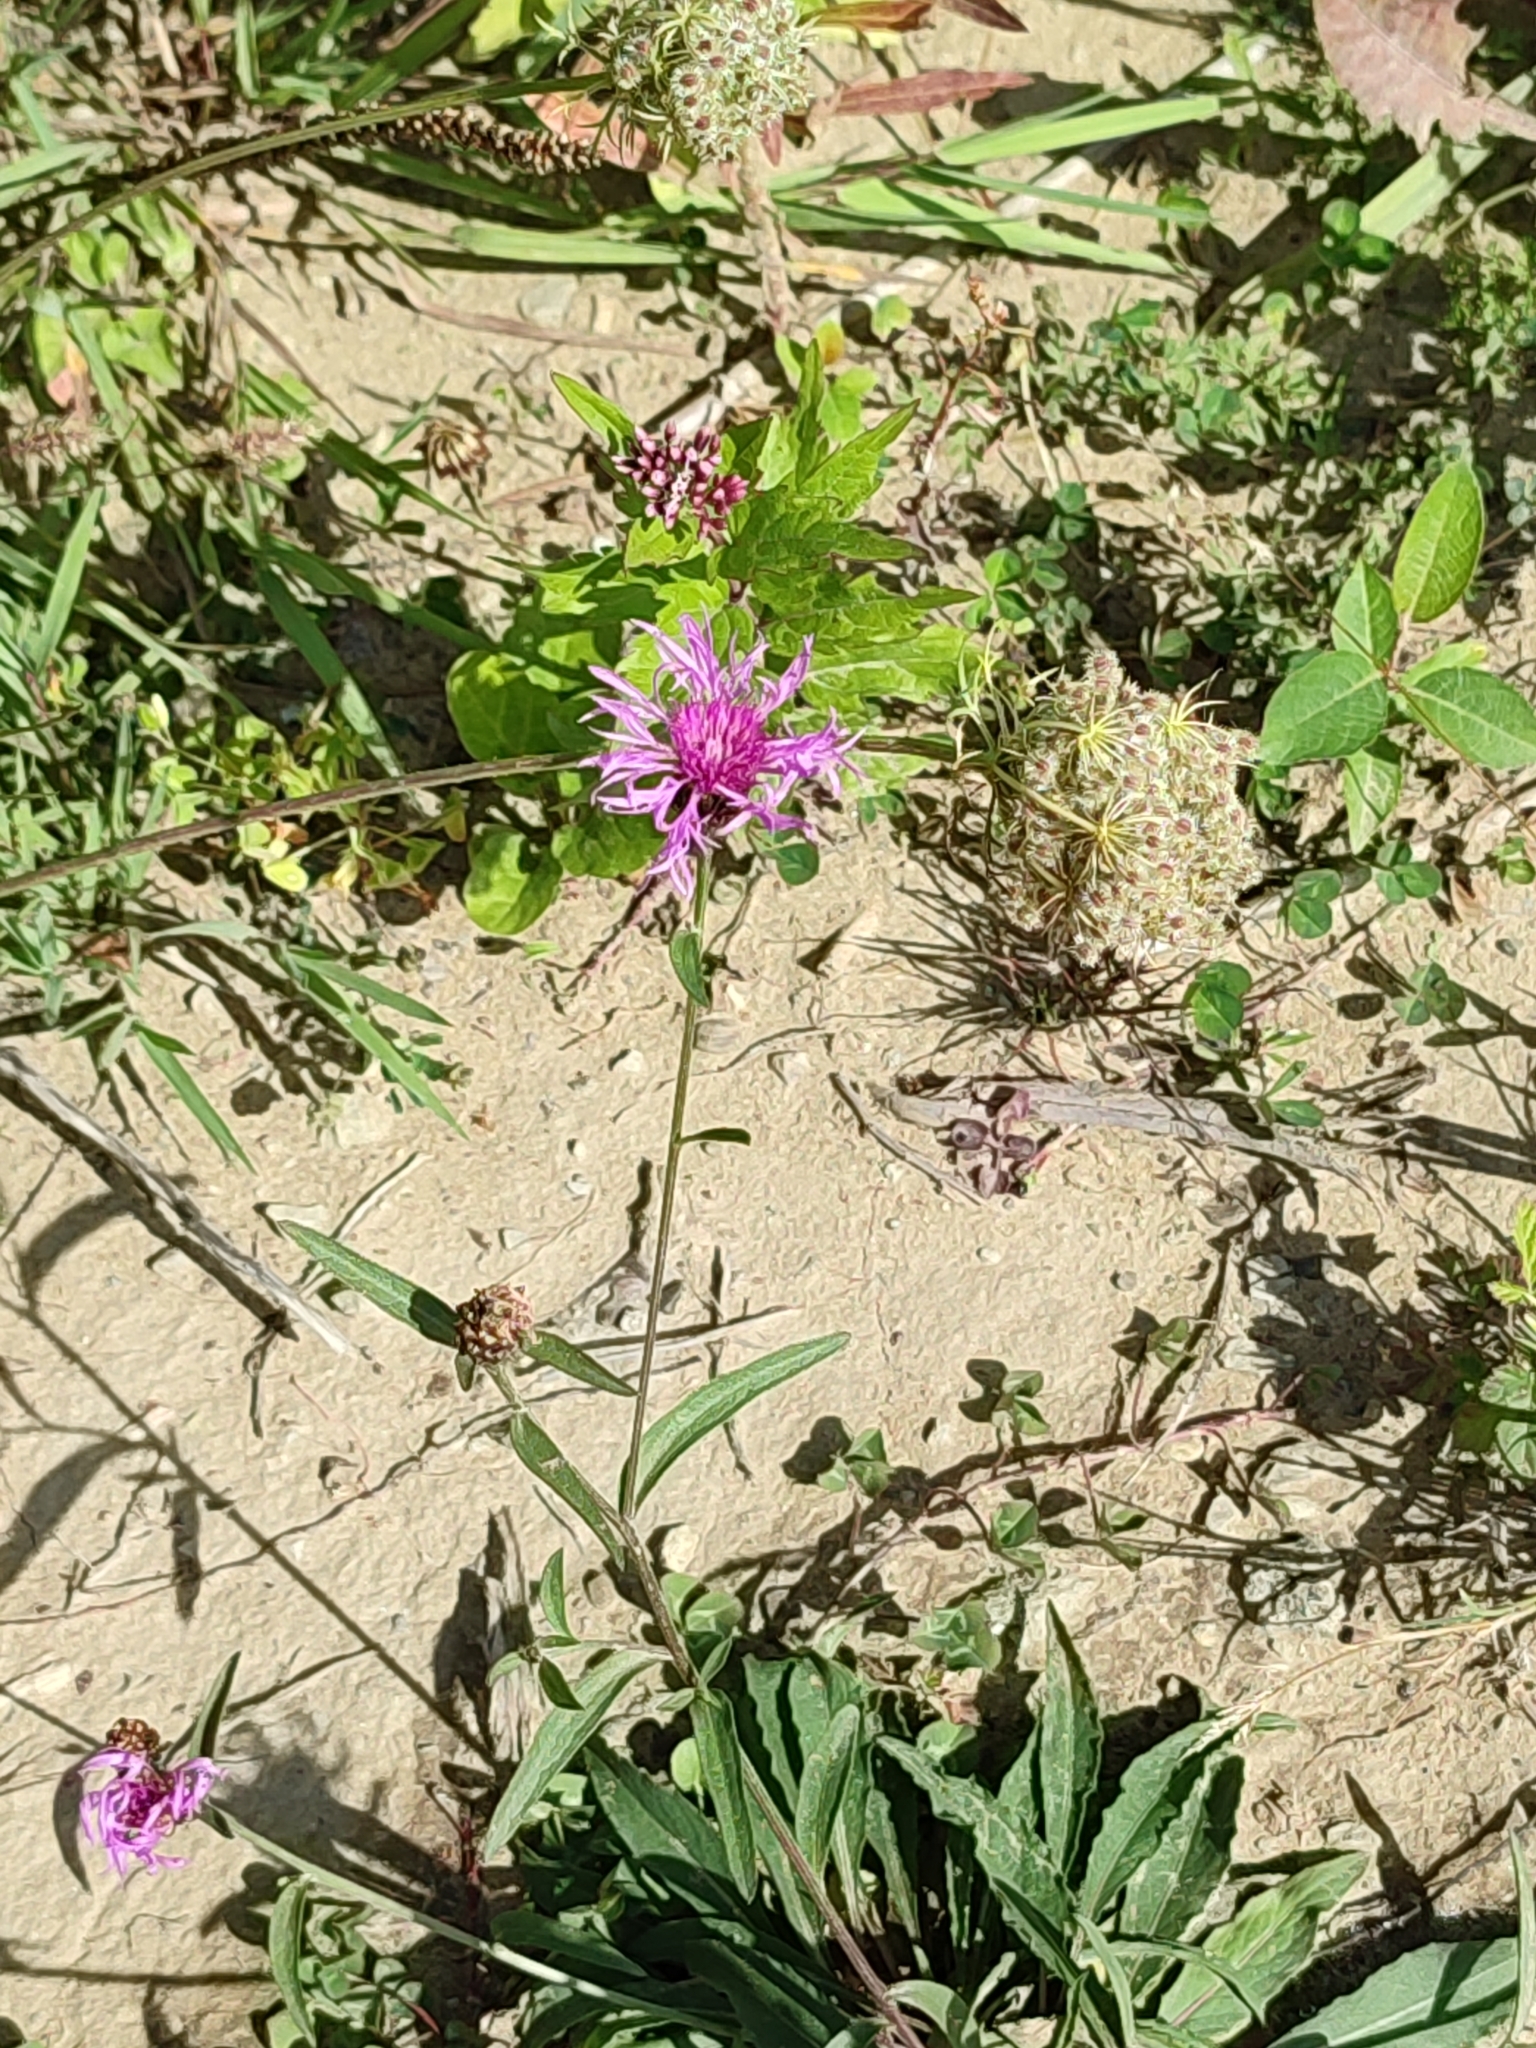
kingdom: Plantae
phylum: Tracheophyta
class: Magnoliopsida
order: Asterales
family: Asteraceae
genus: Centaurea
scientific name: Centaurea jacea
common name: Brown knapweed
